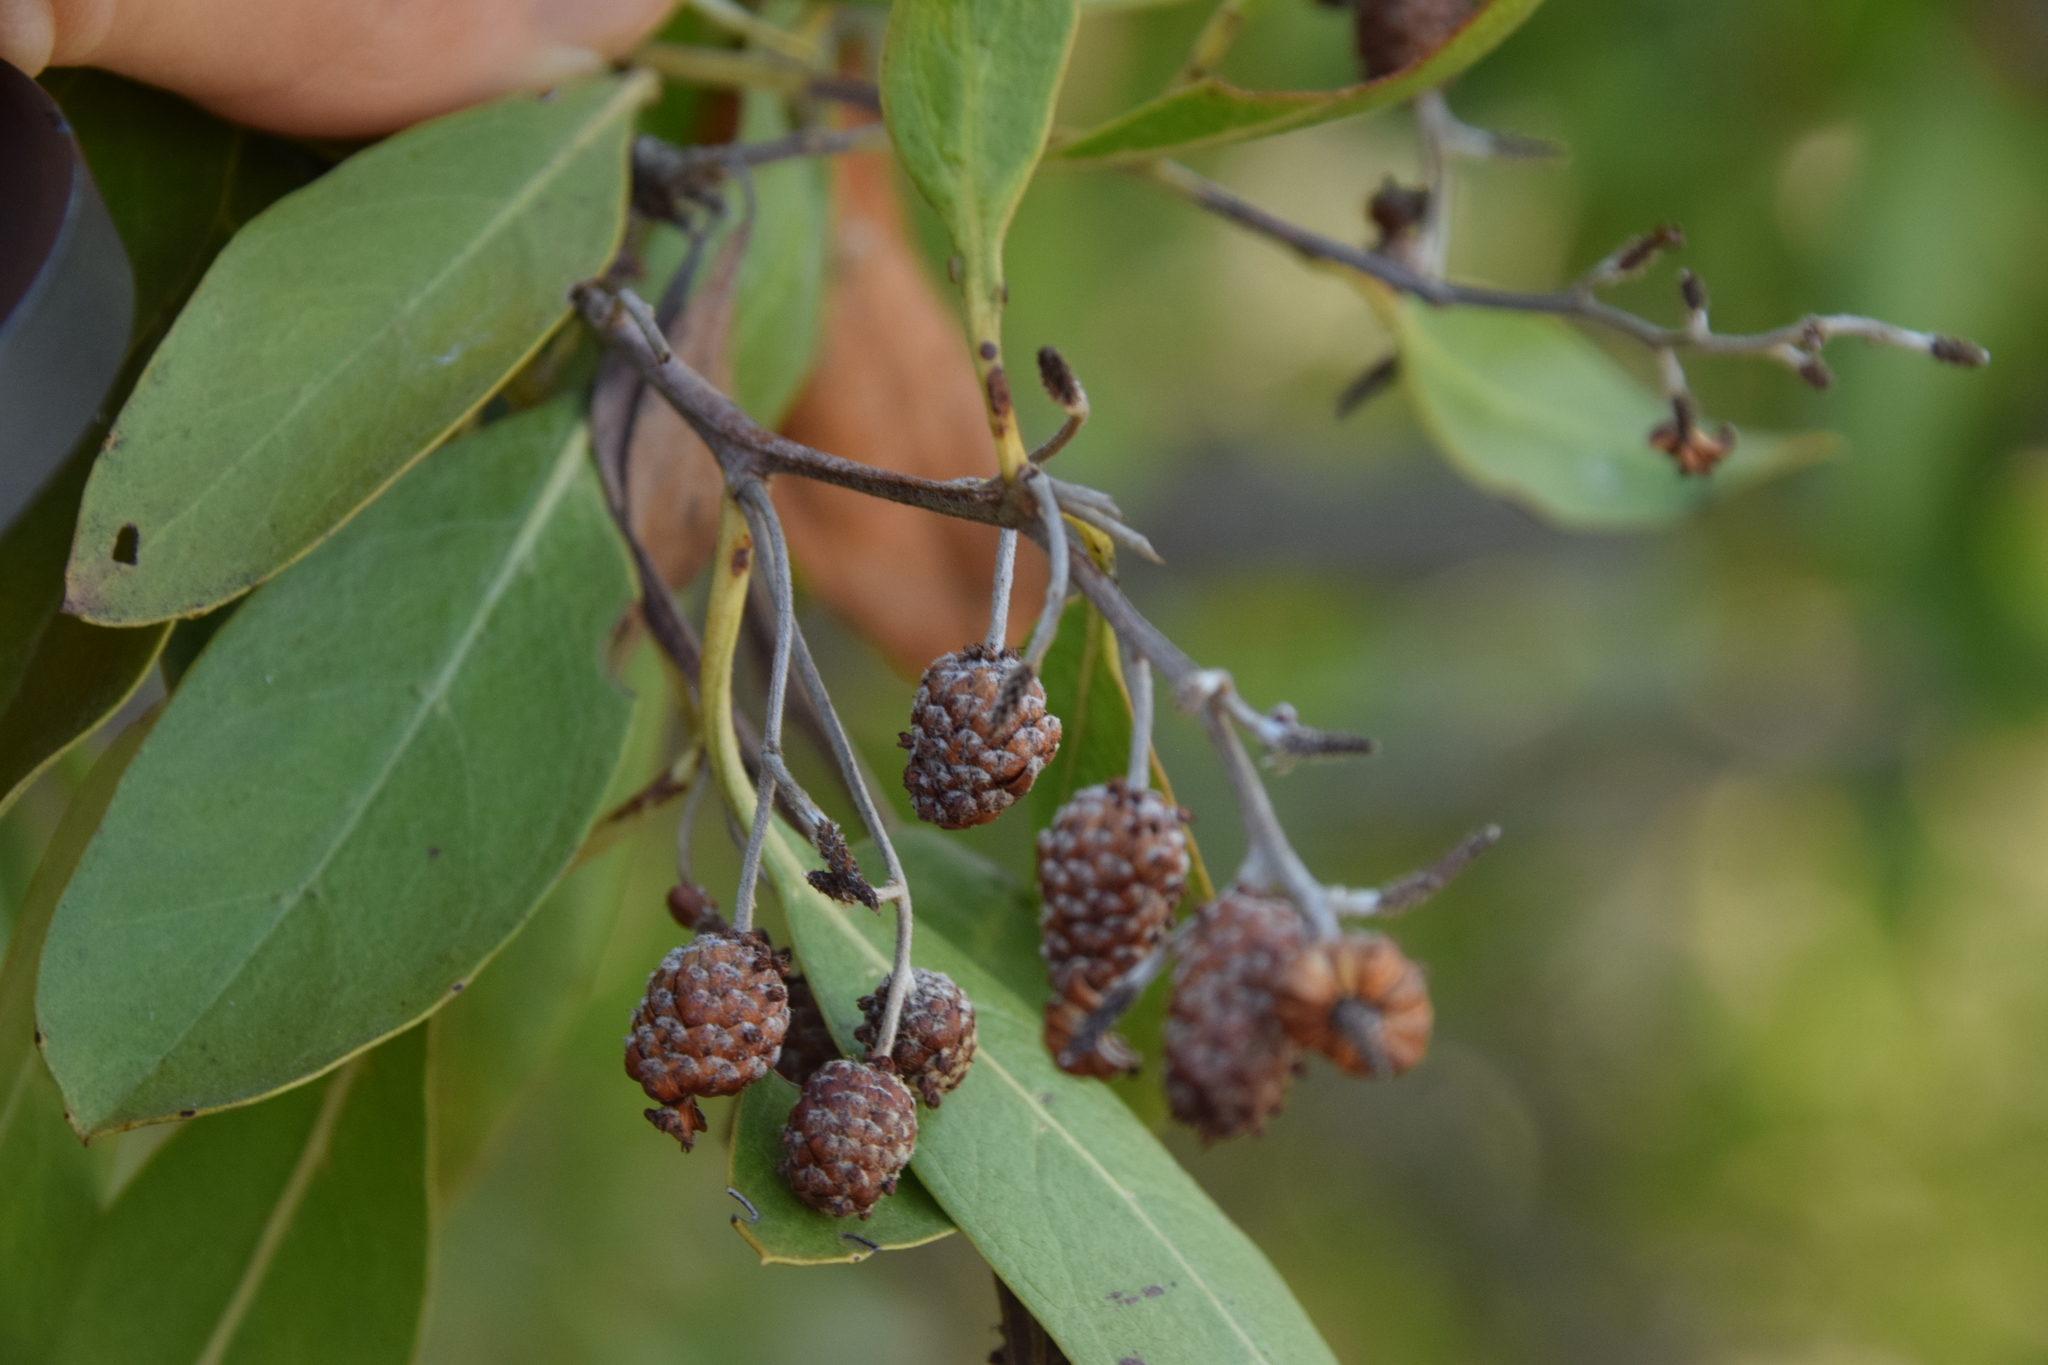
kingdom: Plantae
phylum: Tracheophyta
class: Magnoliopsida
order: Myrtales
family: Combretaceae
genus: Conocarpus
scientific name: Conocarpus erectus
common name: Button mangrove
